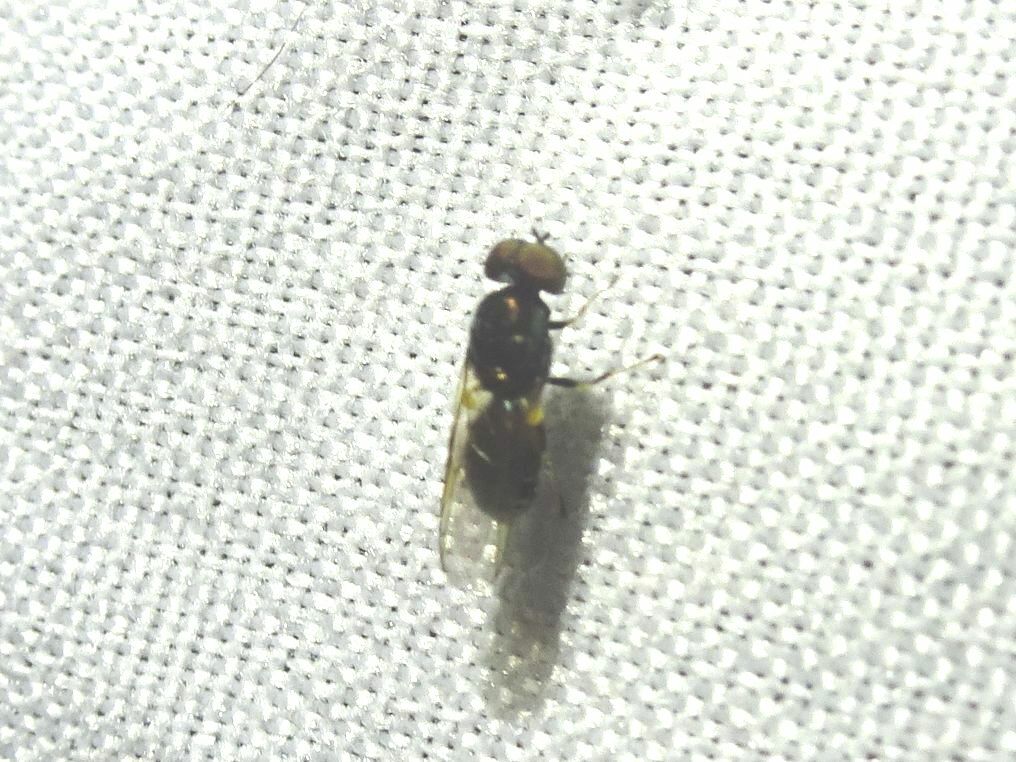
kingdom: Animalia
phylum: Arthropoda
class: Insecta
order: Diptera
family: Stratiomyidae
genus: Microchrysa
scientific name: Microchrysa polita
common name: Black-horned gem
